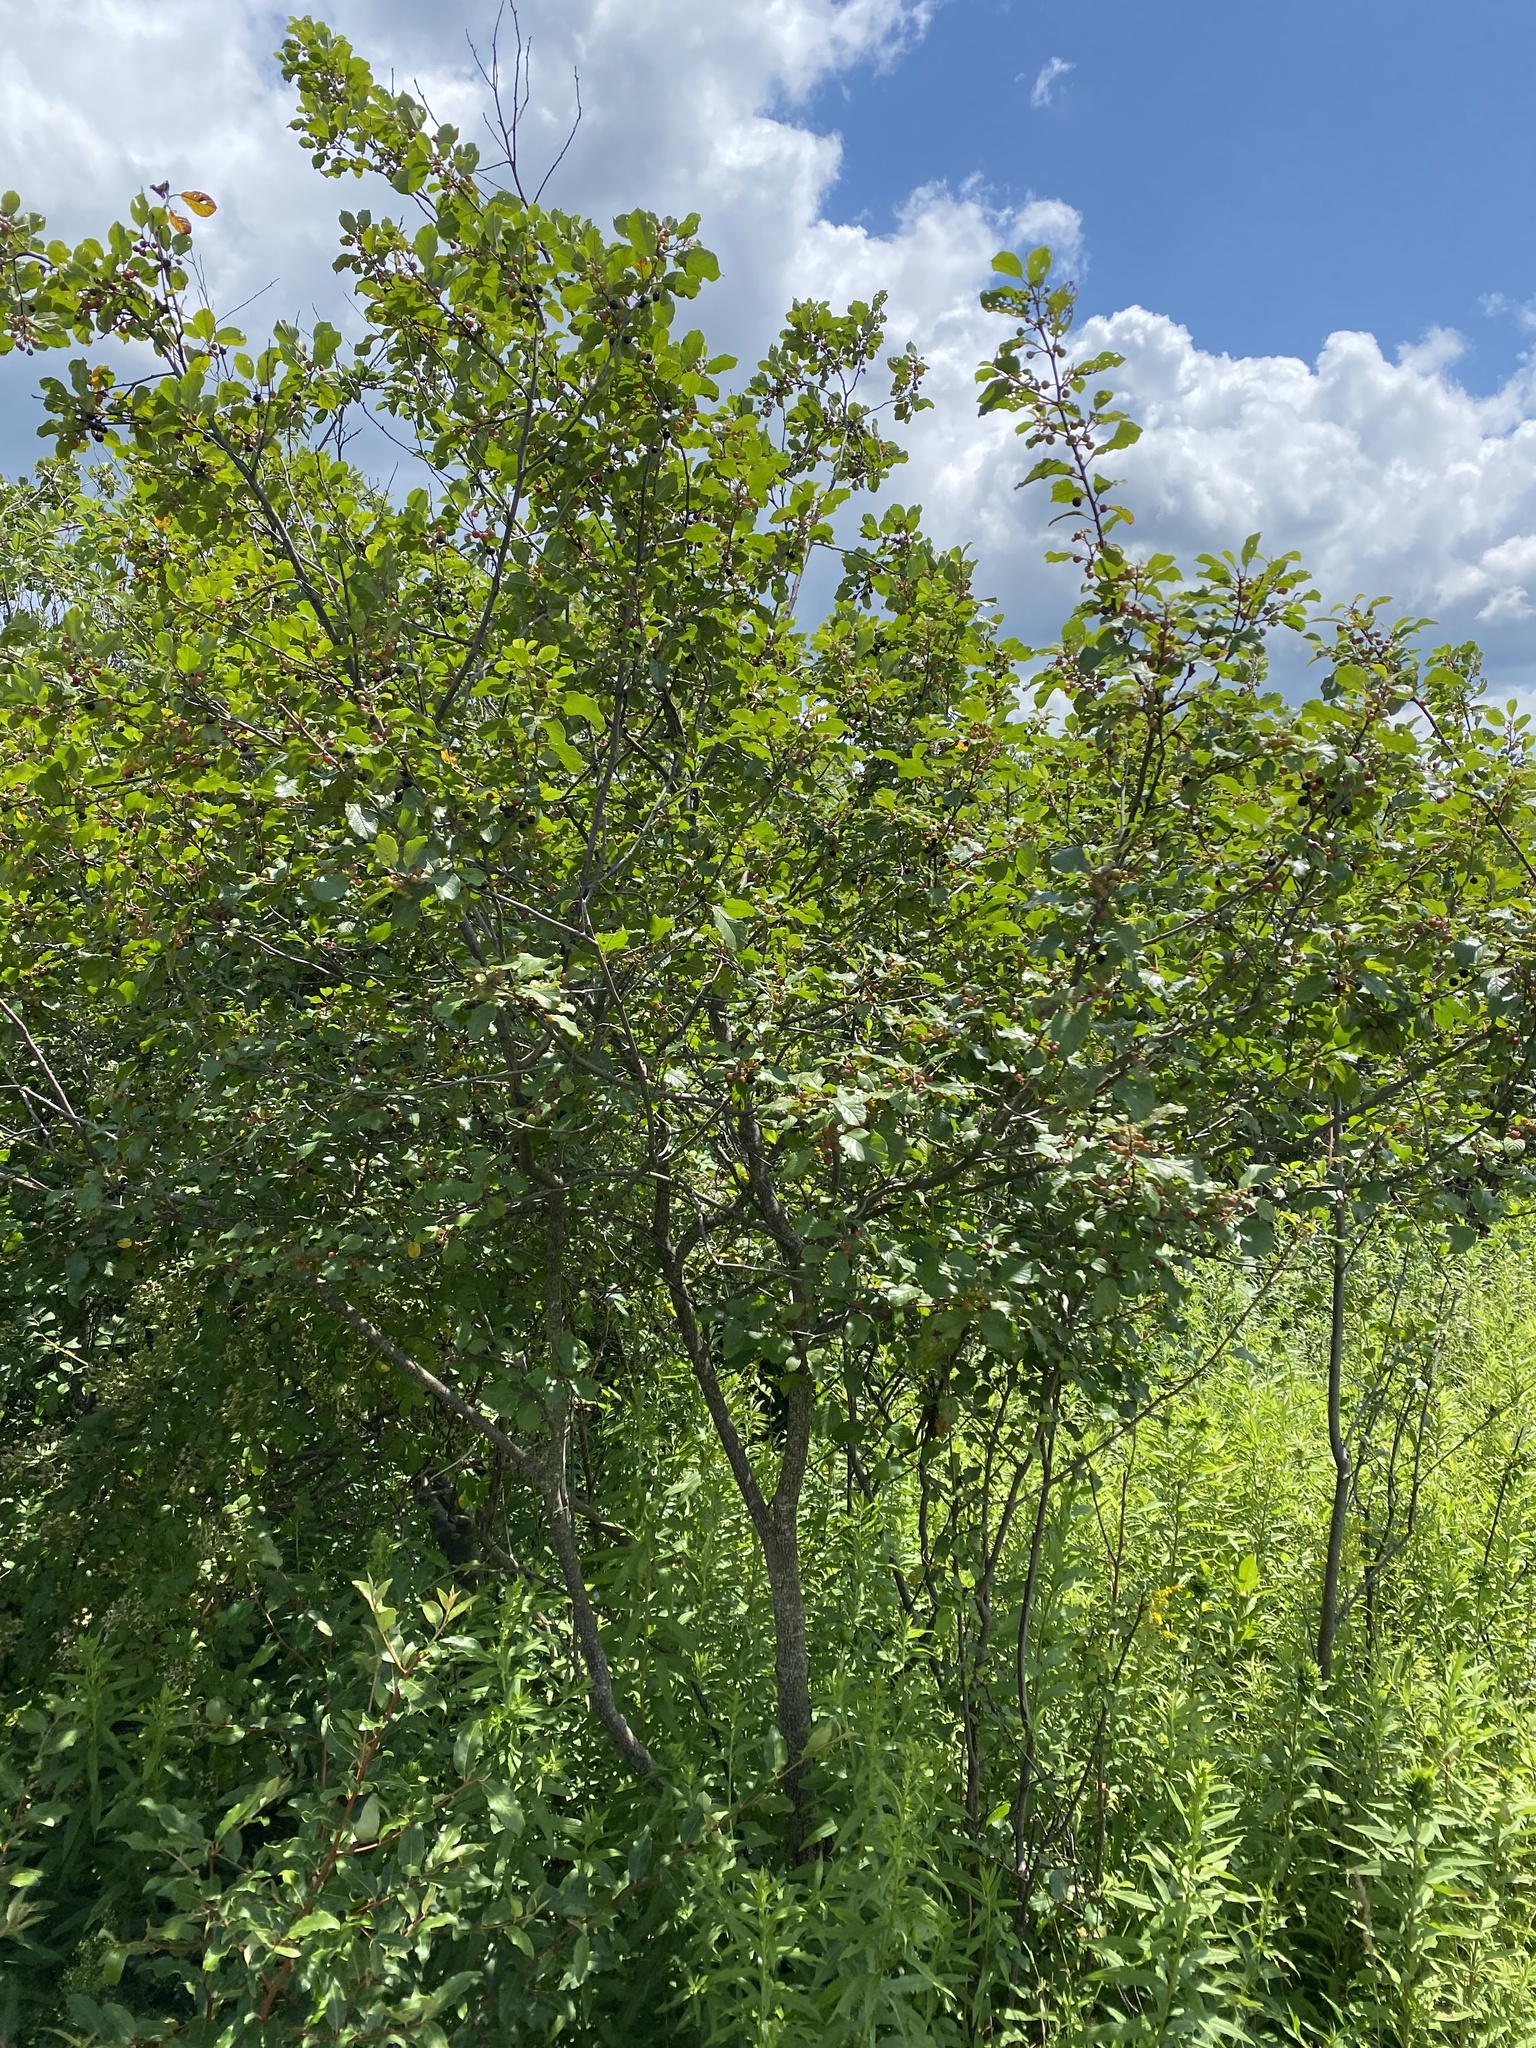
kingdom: Plantae
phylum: Tracheophyta
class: Magnoliopsida
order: Rosales
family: Rhamnaceae
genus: Frangula
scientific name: Frangula alnus
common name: Alder buckthorn
